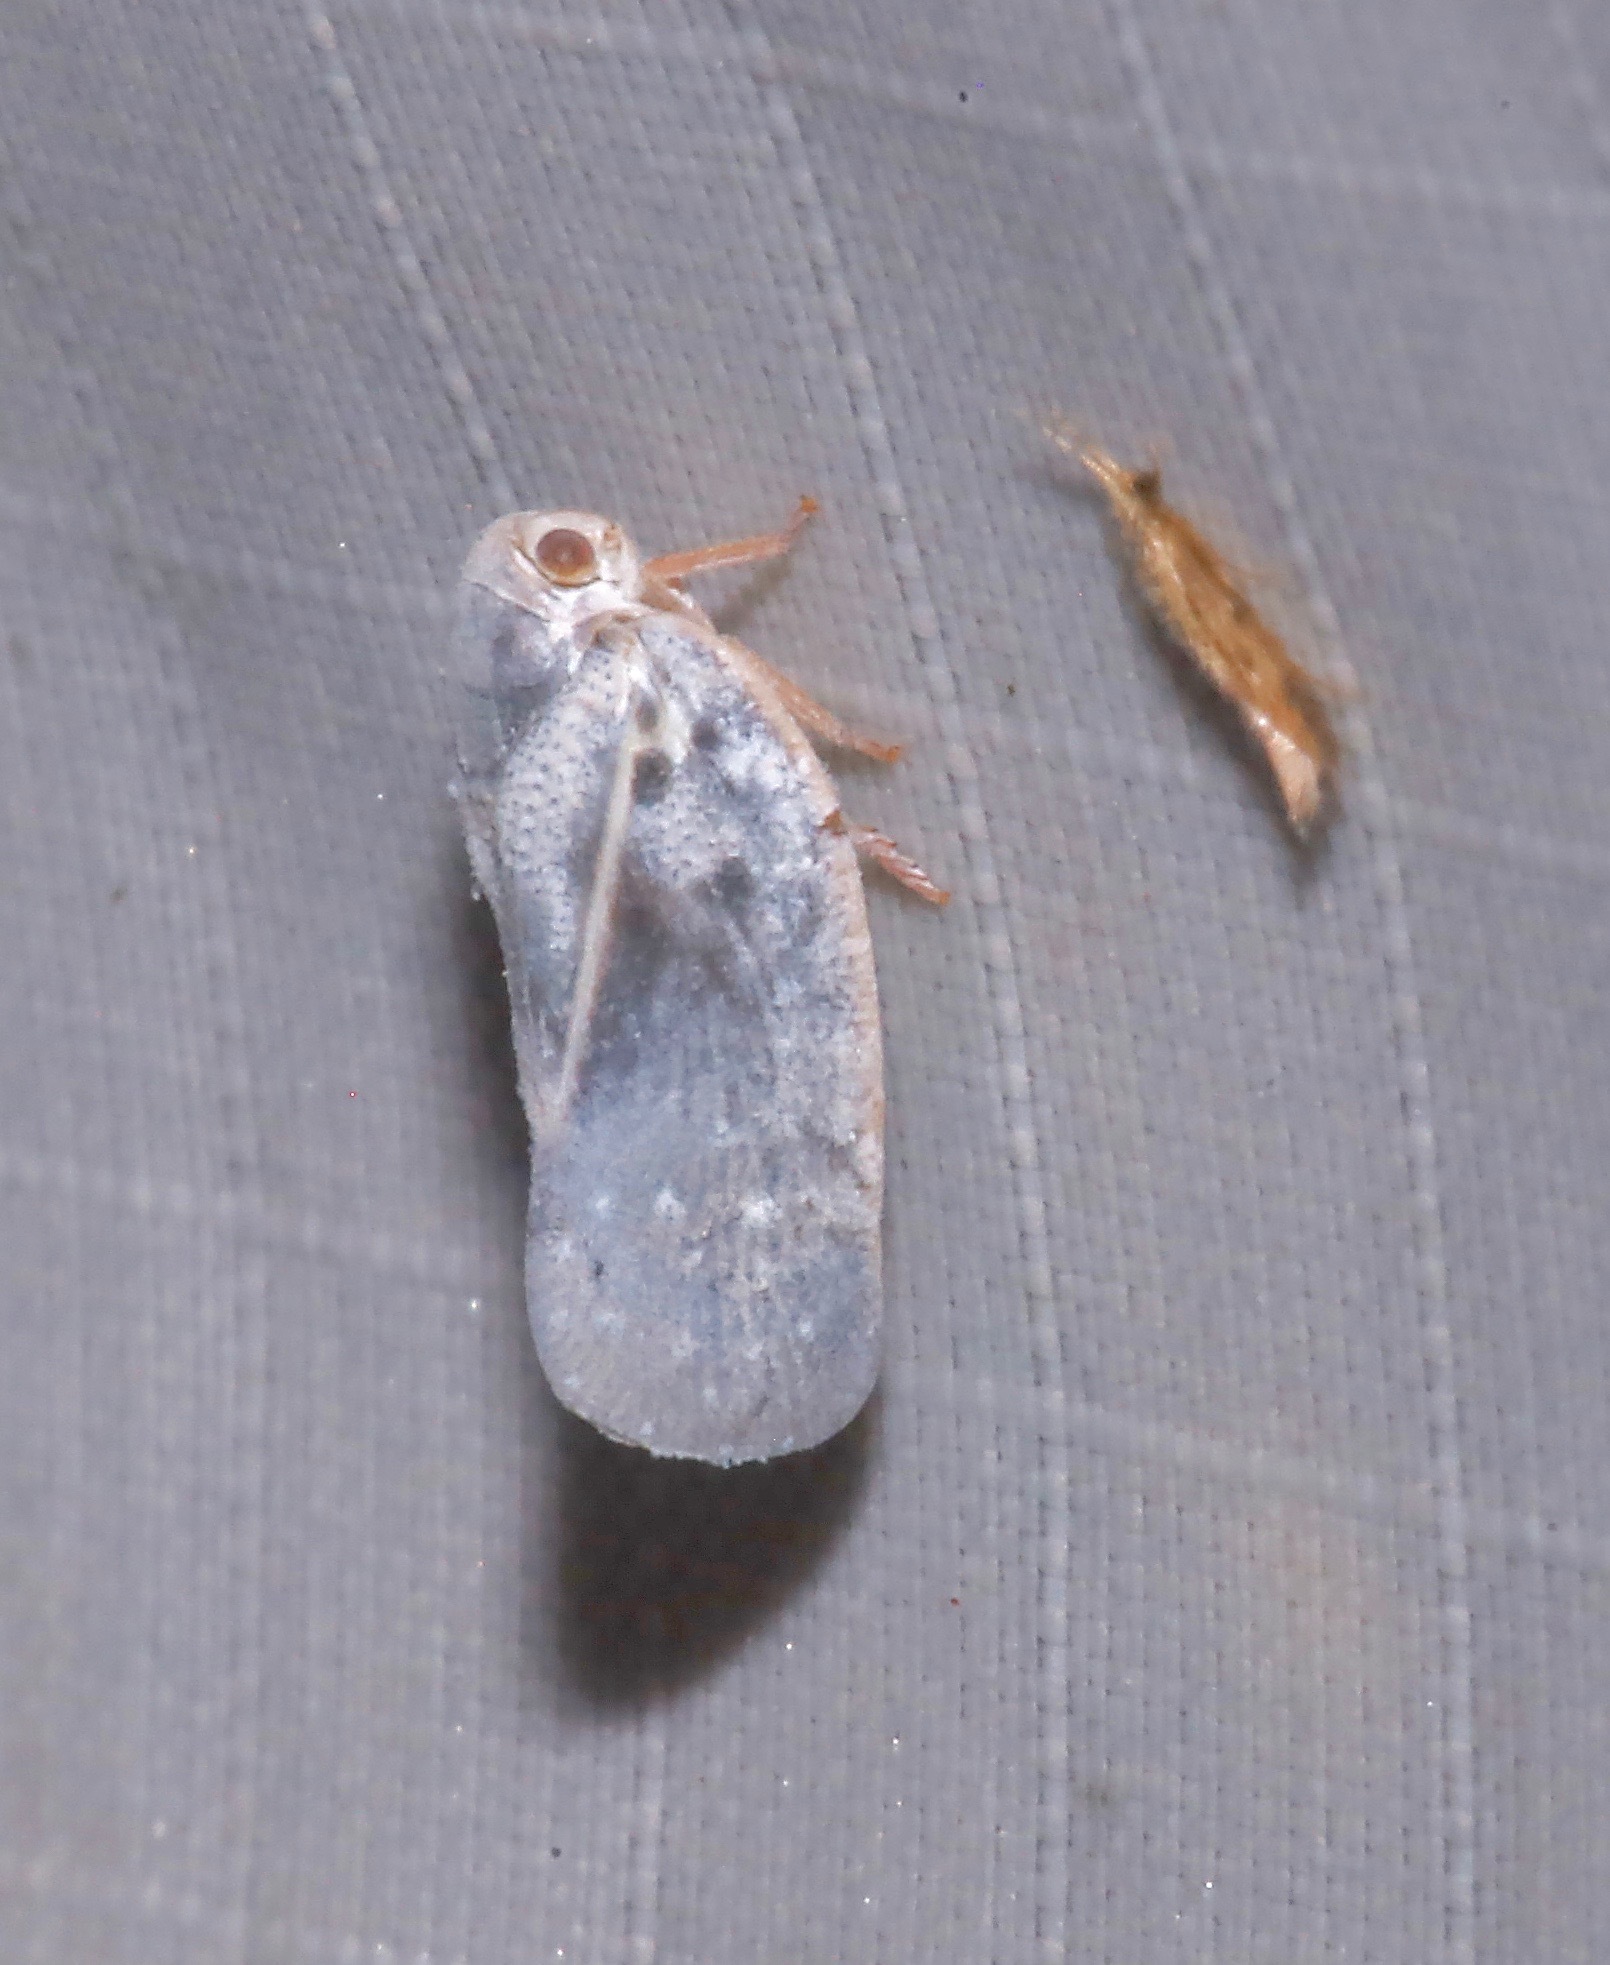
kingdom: Animalia
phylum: Arthropoda
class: Insecta
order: Hemiptera
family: Flatidae
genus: Metcalfa
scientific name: Metcalfa pruinosa
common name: Citrus flatid planthopper
